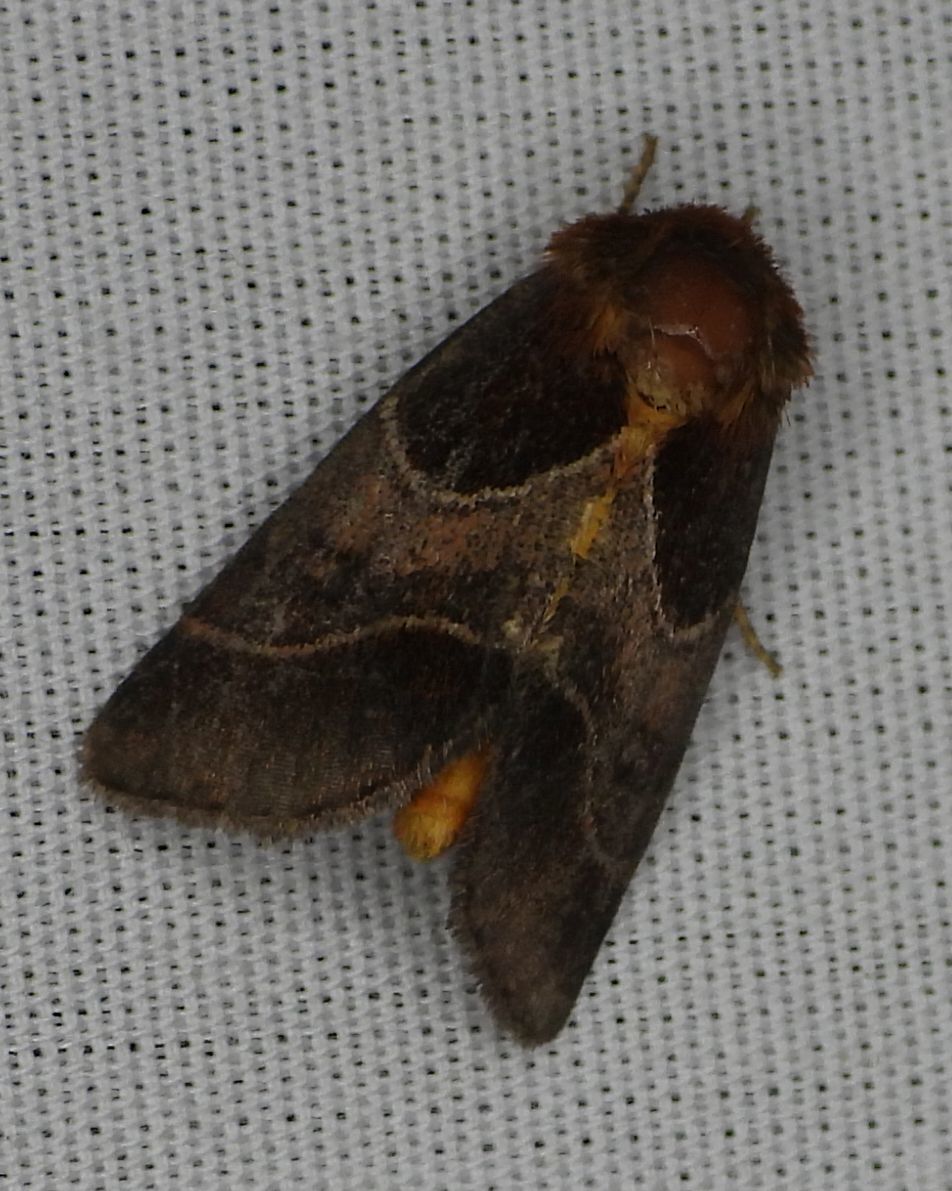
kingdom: Animalia
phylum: Arthropoda
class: Insecta
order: Lepidoptera
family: Noctuidae
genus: Schinia
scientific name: Schinia arcigera
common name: Arcigera flower moth
